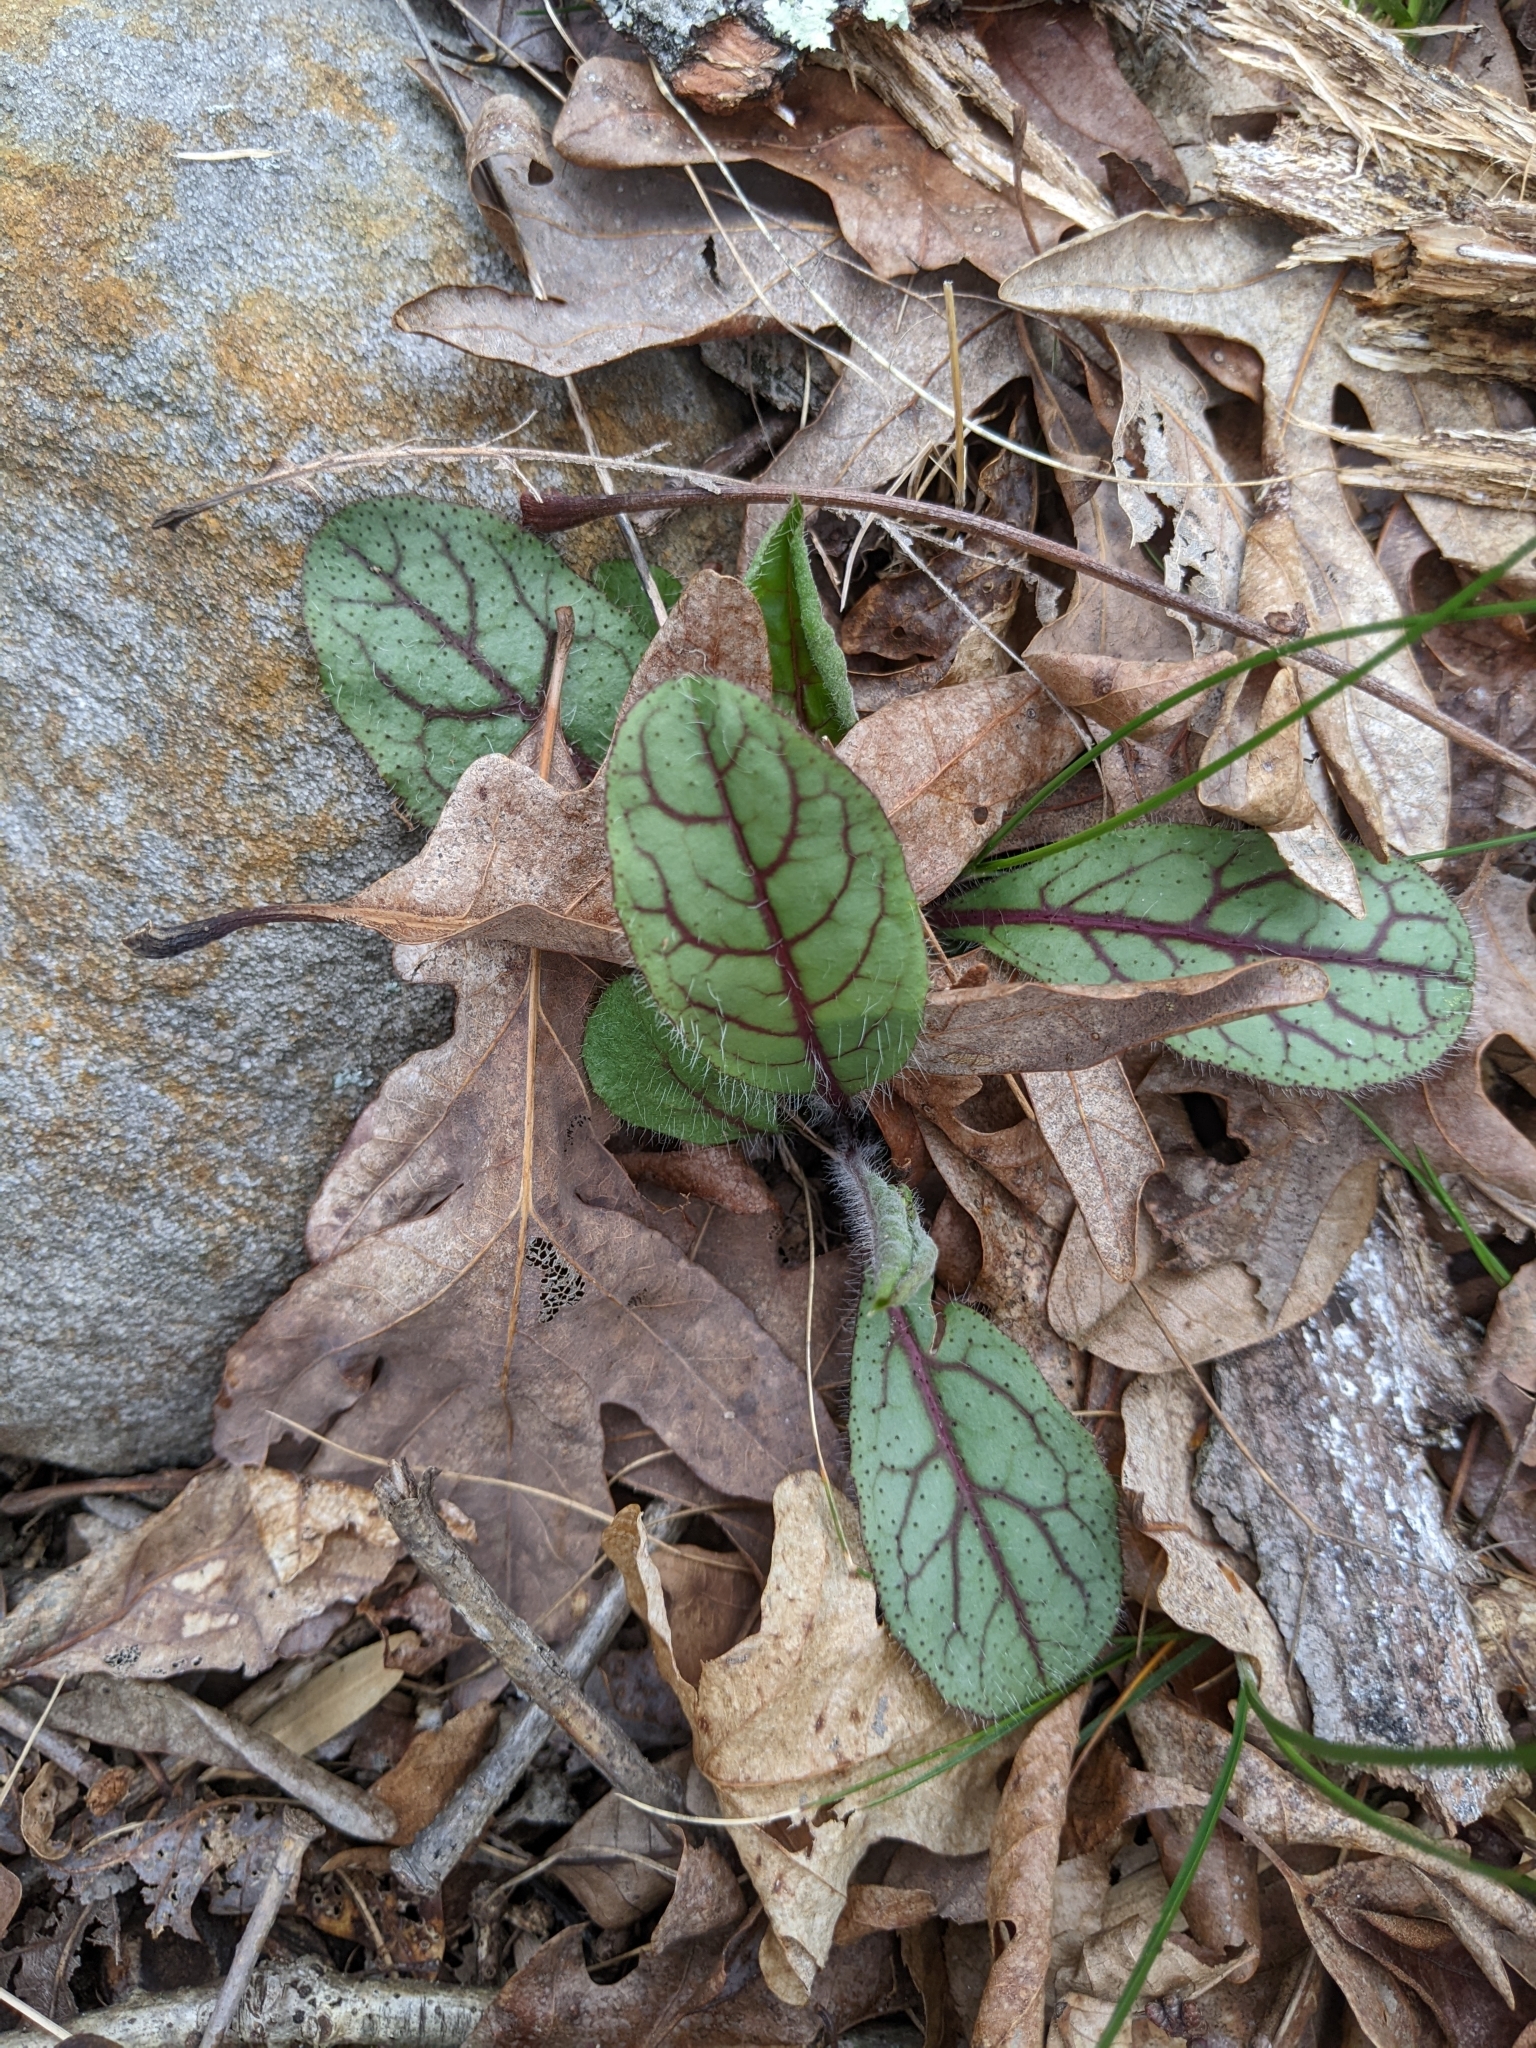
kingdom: Plantae
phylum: Tracheophyta
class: Magnoliopsida
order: Asterales
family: Asteraceae
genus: Hieracium
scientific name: Hieracium venosum
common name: Rattlesnake hawkweed
